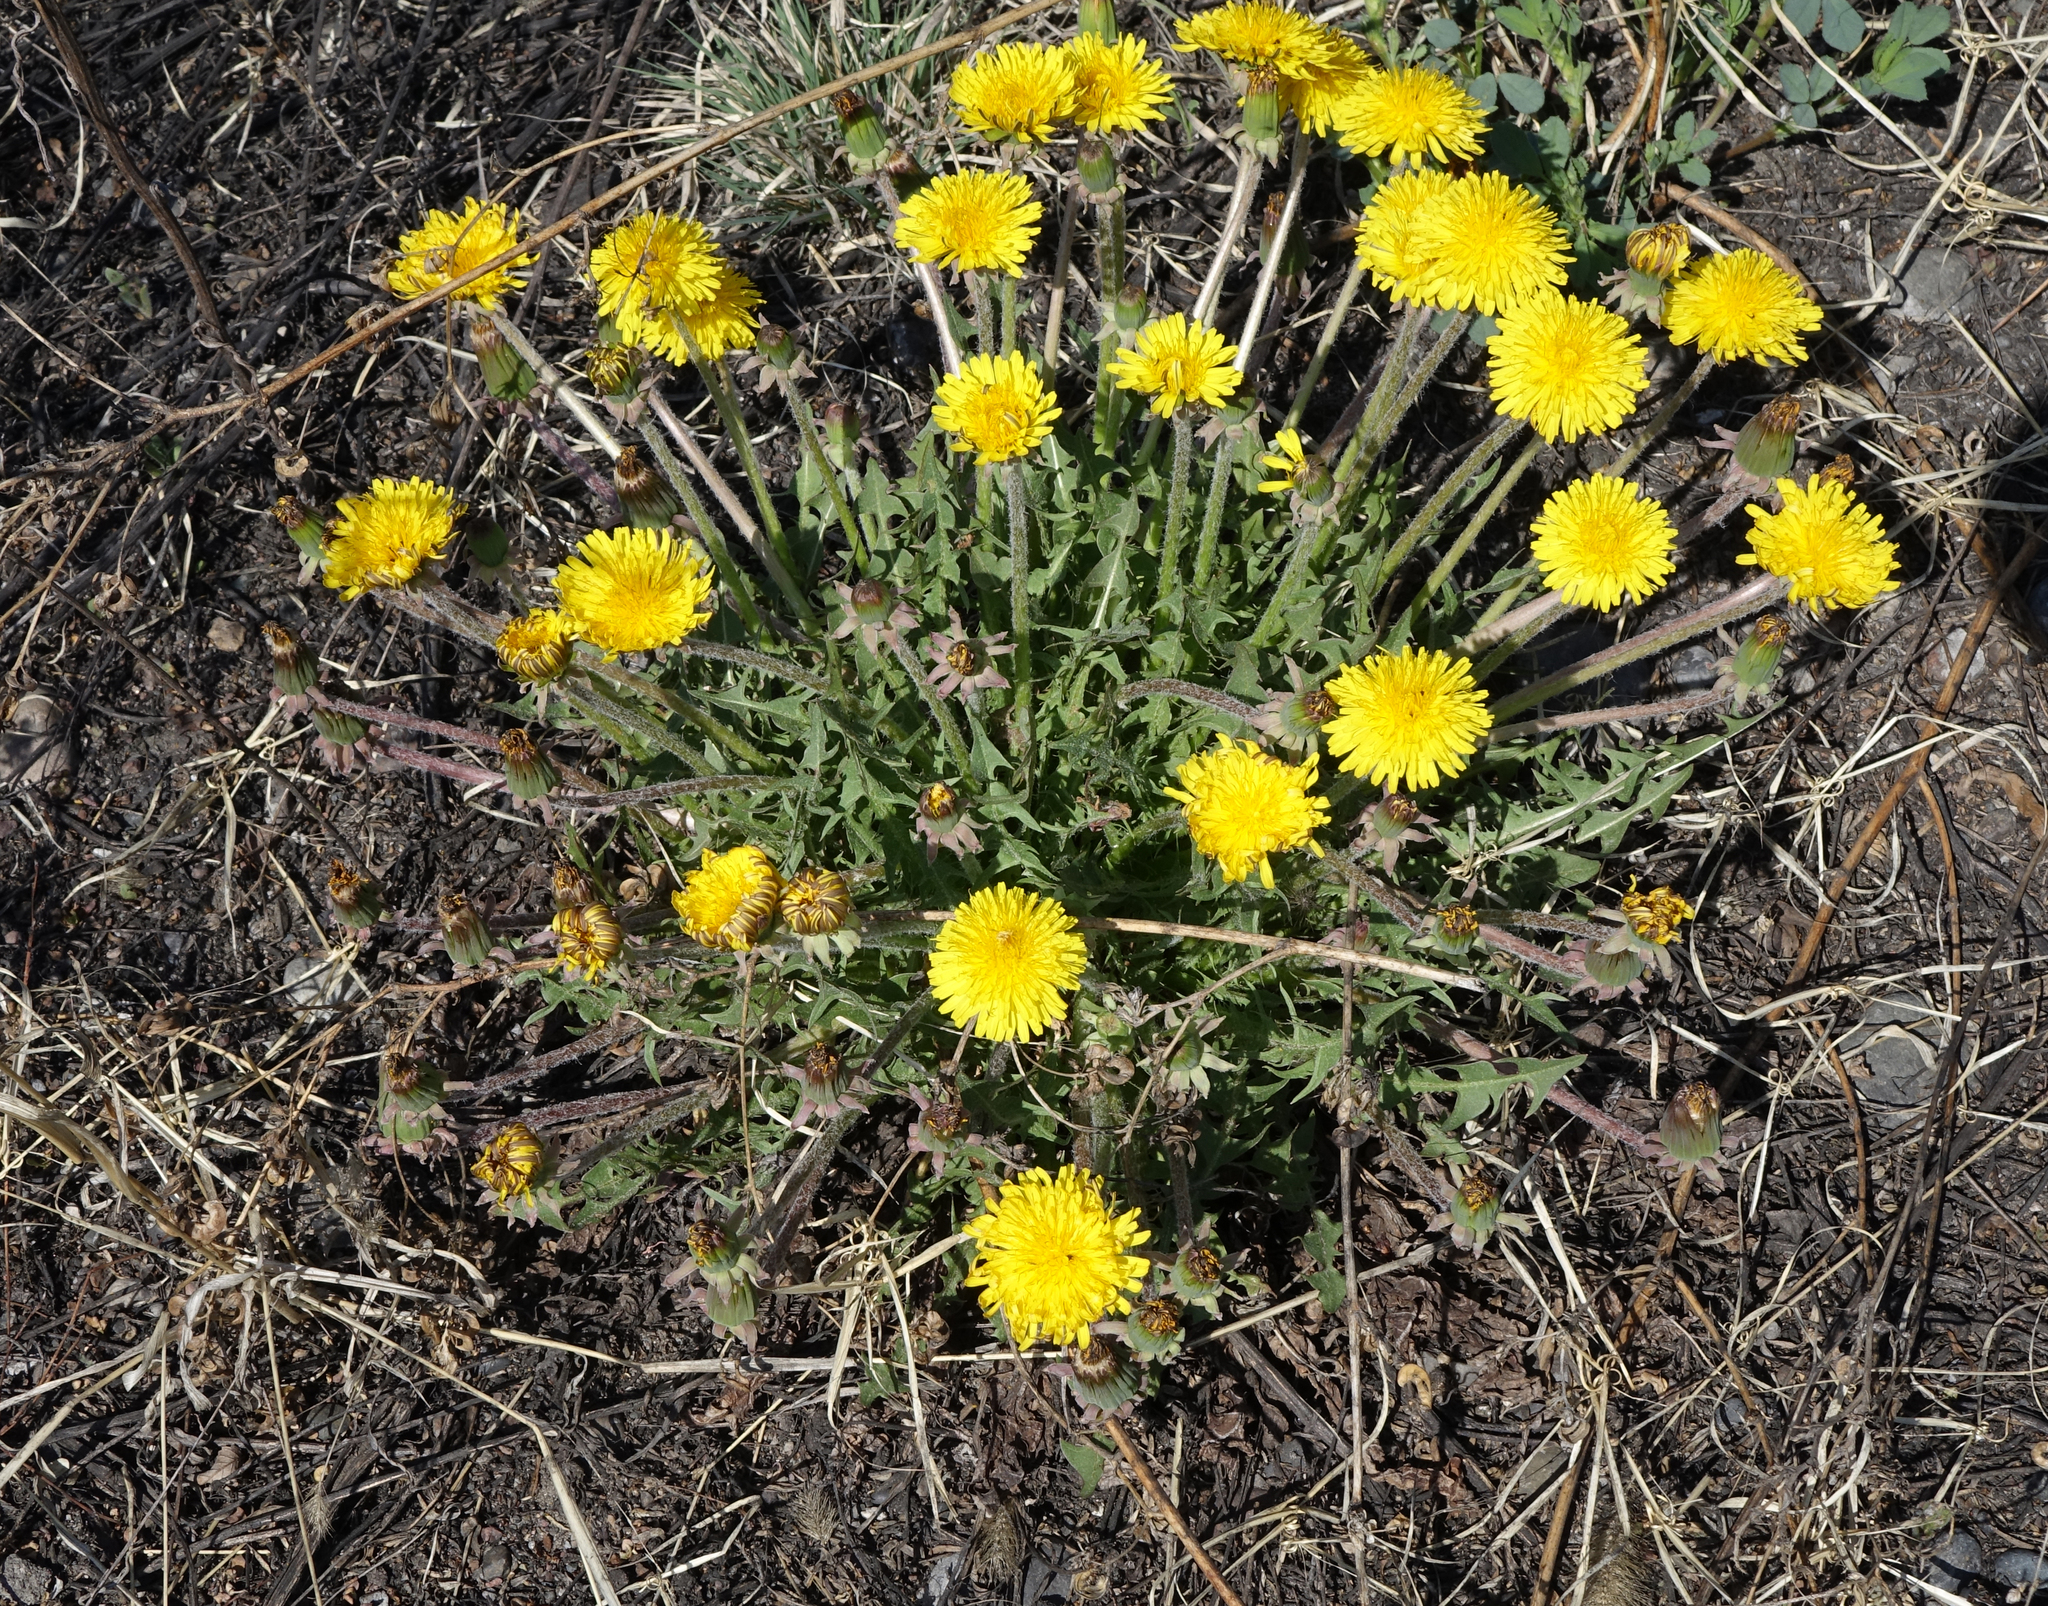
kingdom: Plantae
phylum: Tracheophyta
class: Magnoliopsida
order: Asterales
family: Asteraceae
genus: Taraxacum
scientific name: Taraxacum officinale
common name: Common dandelion
